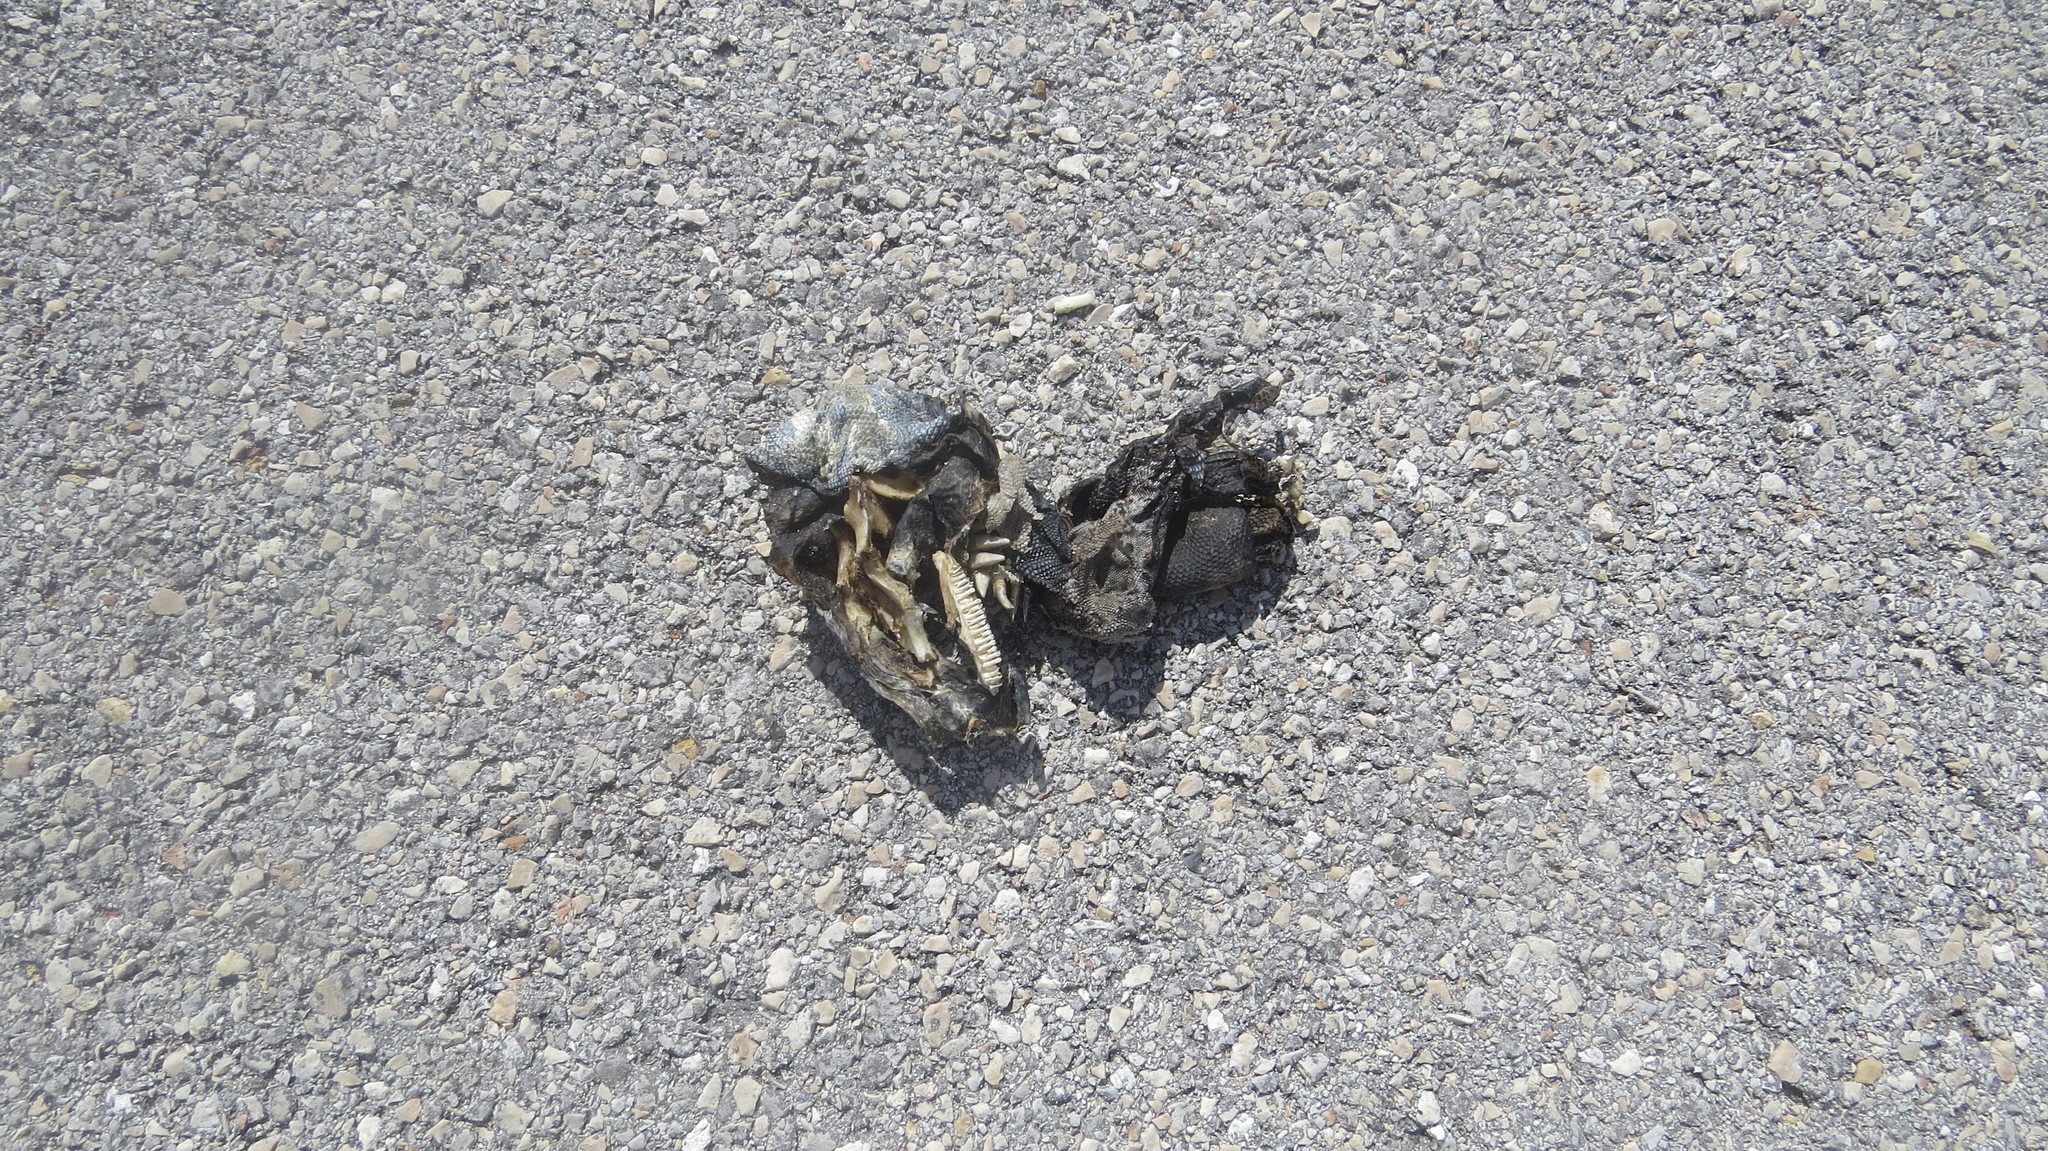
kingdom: Animalia
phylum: Chordata
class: Squamata
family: Iguanidae
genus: Ctenosaura
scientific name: Ctenosaura similis
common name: Black spiny-tailed iguana
